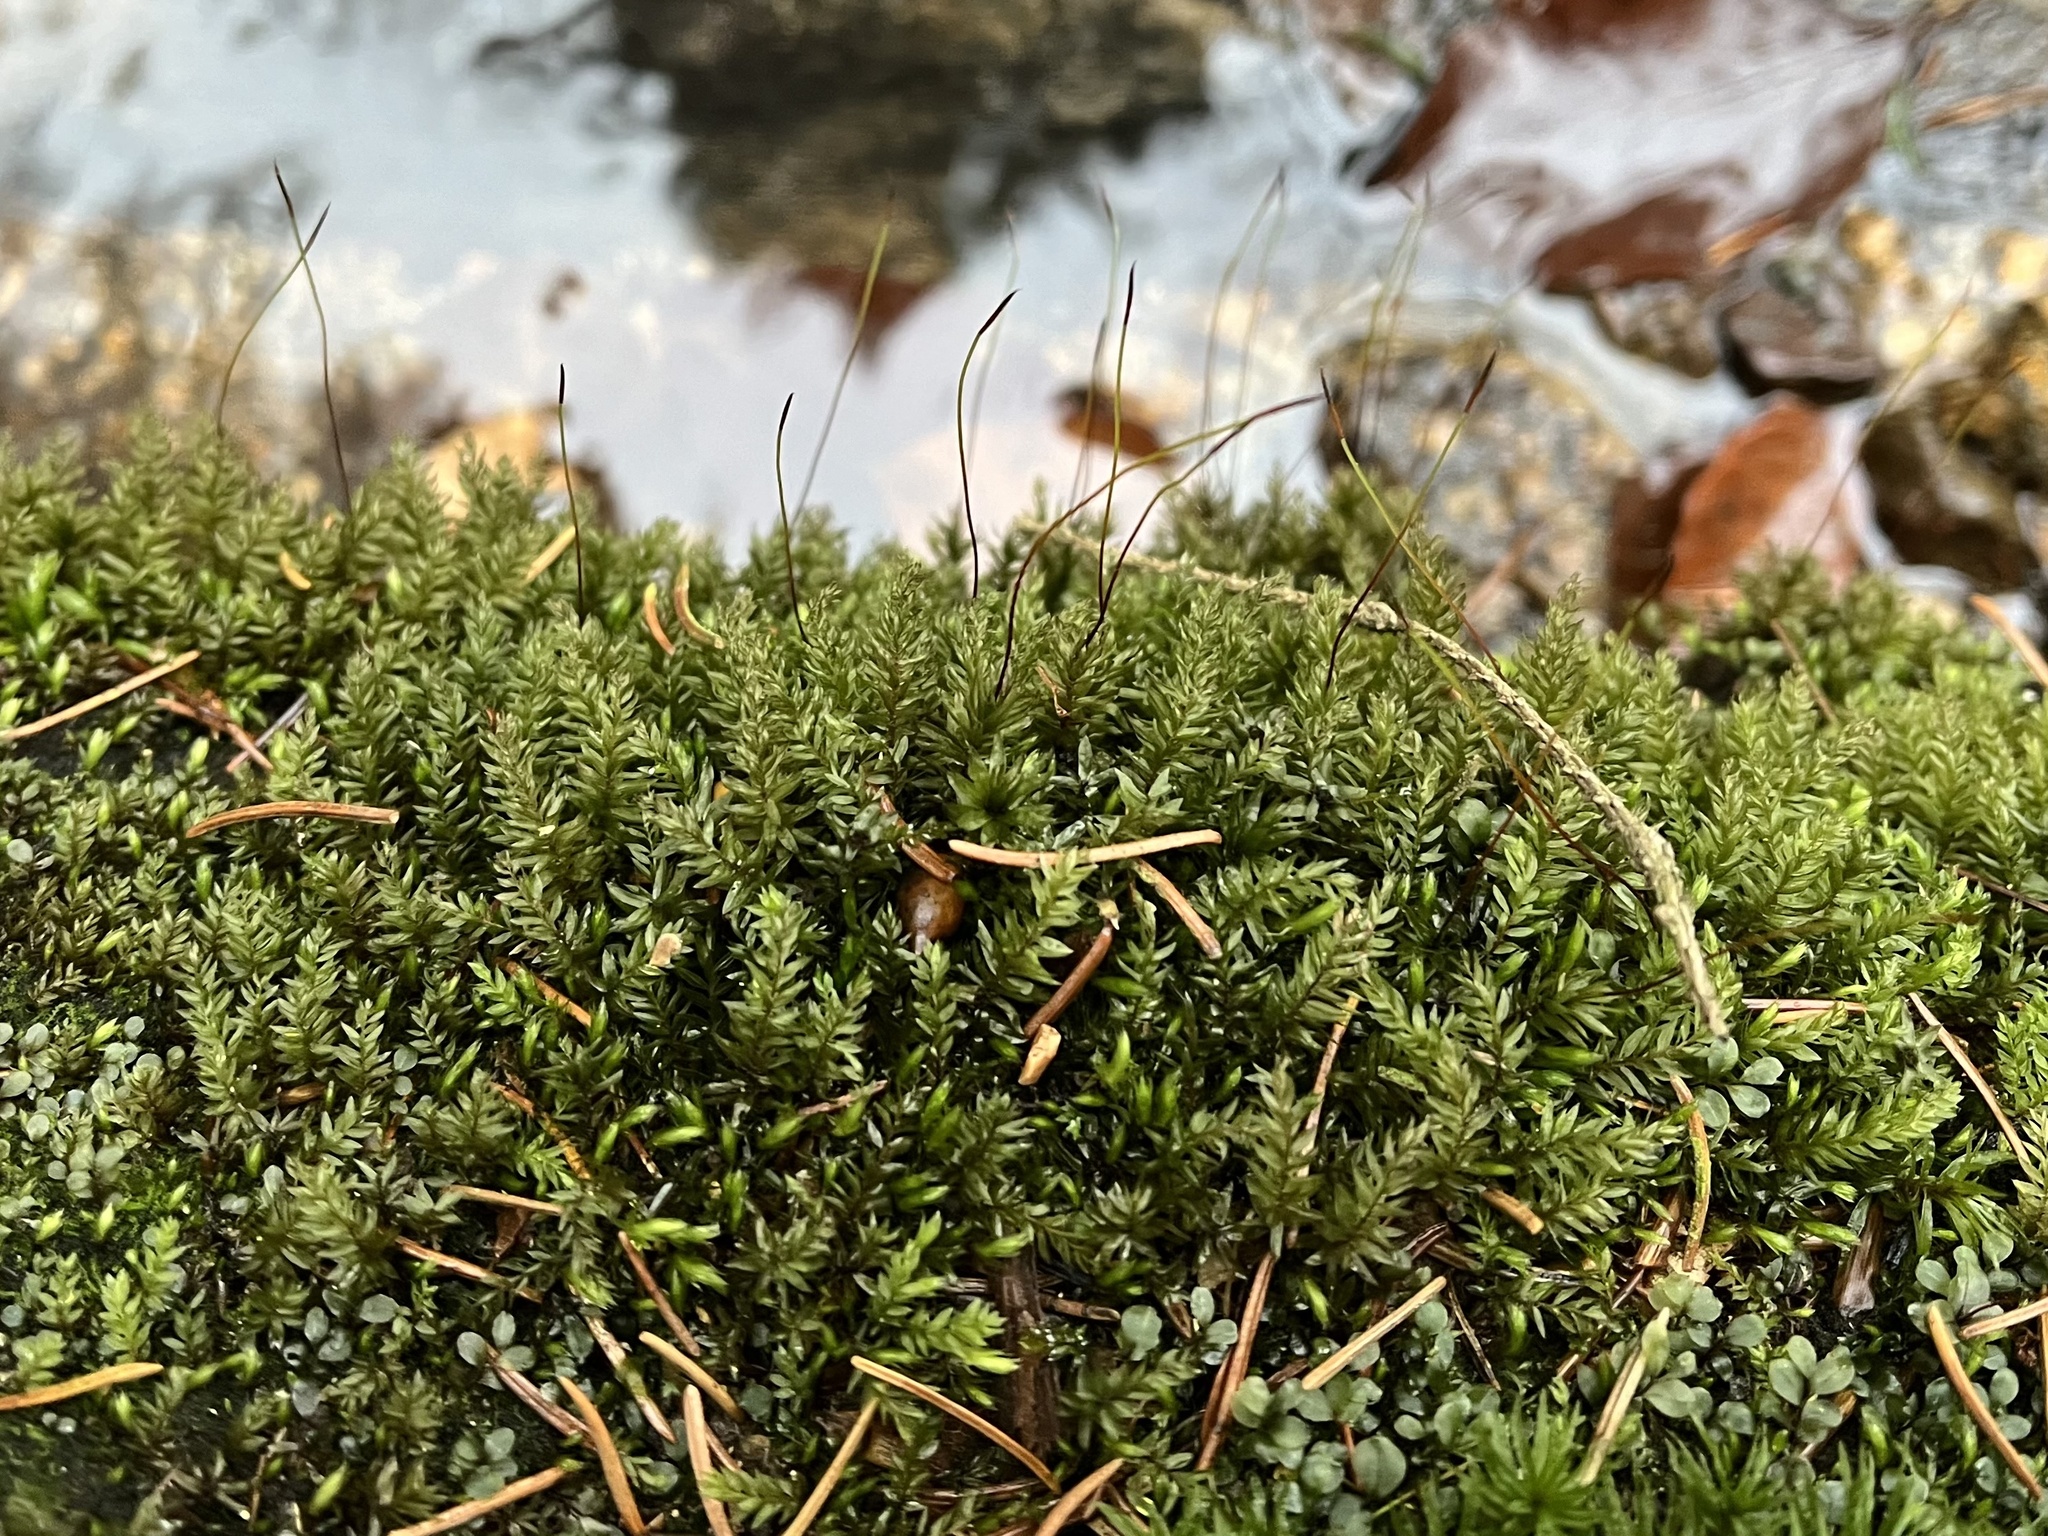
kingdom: Plantae
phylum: Bryophyta
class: Bryopsida
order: Bryales
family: Mniaceae
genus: Mnium
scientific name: Mnium hornum
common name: Swan's-neck leafy moss
